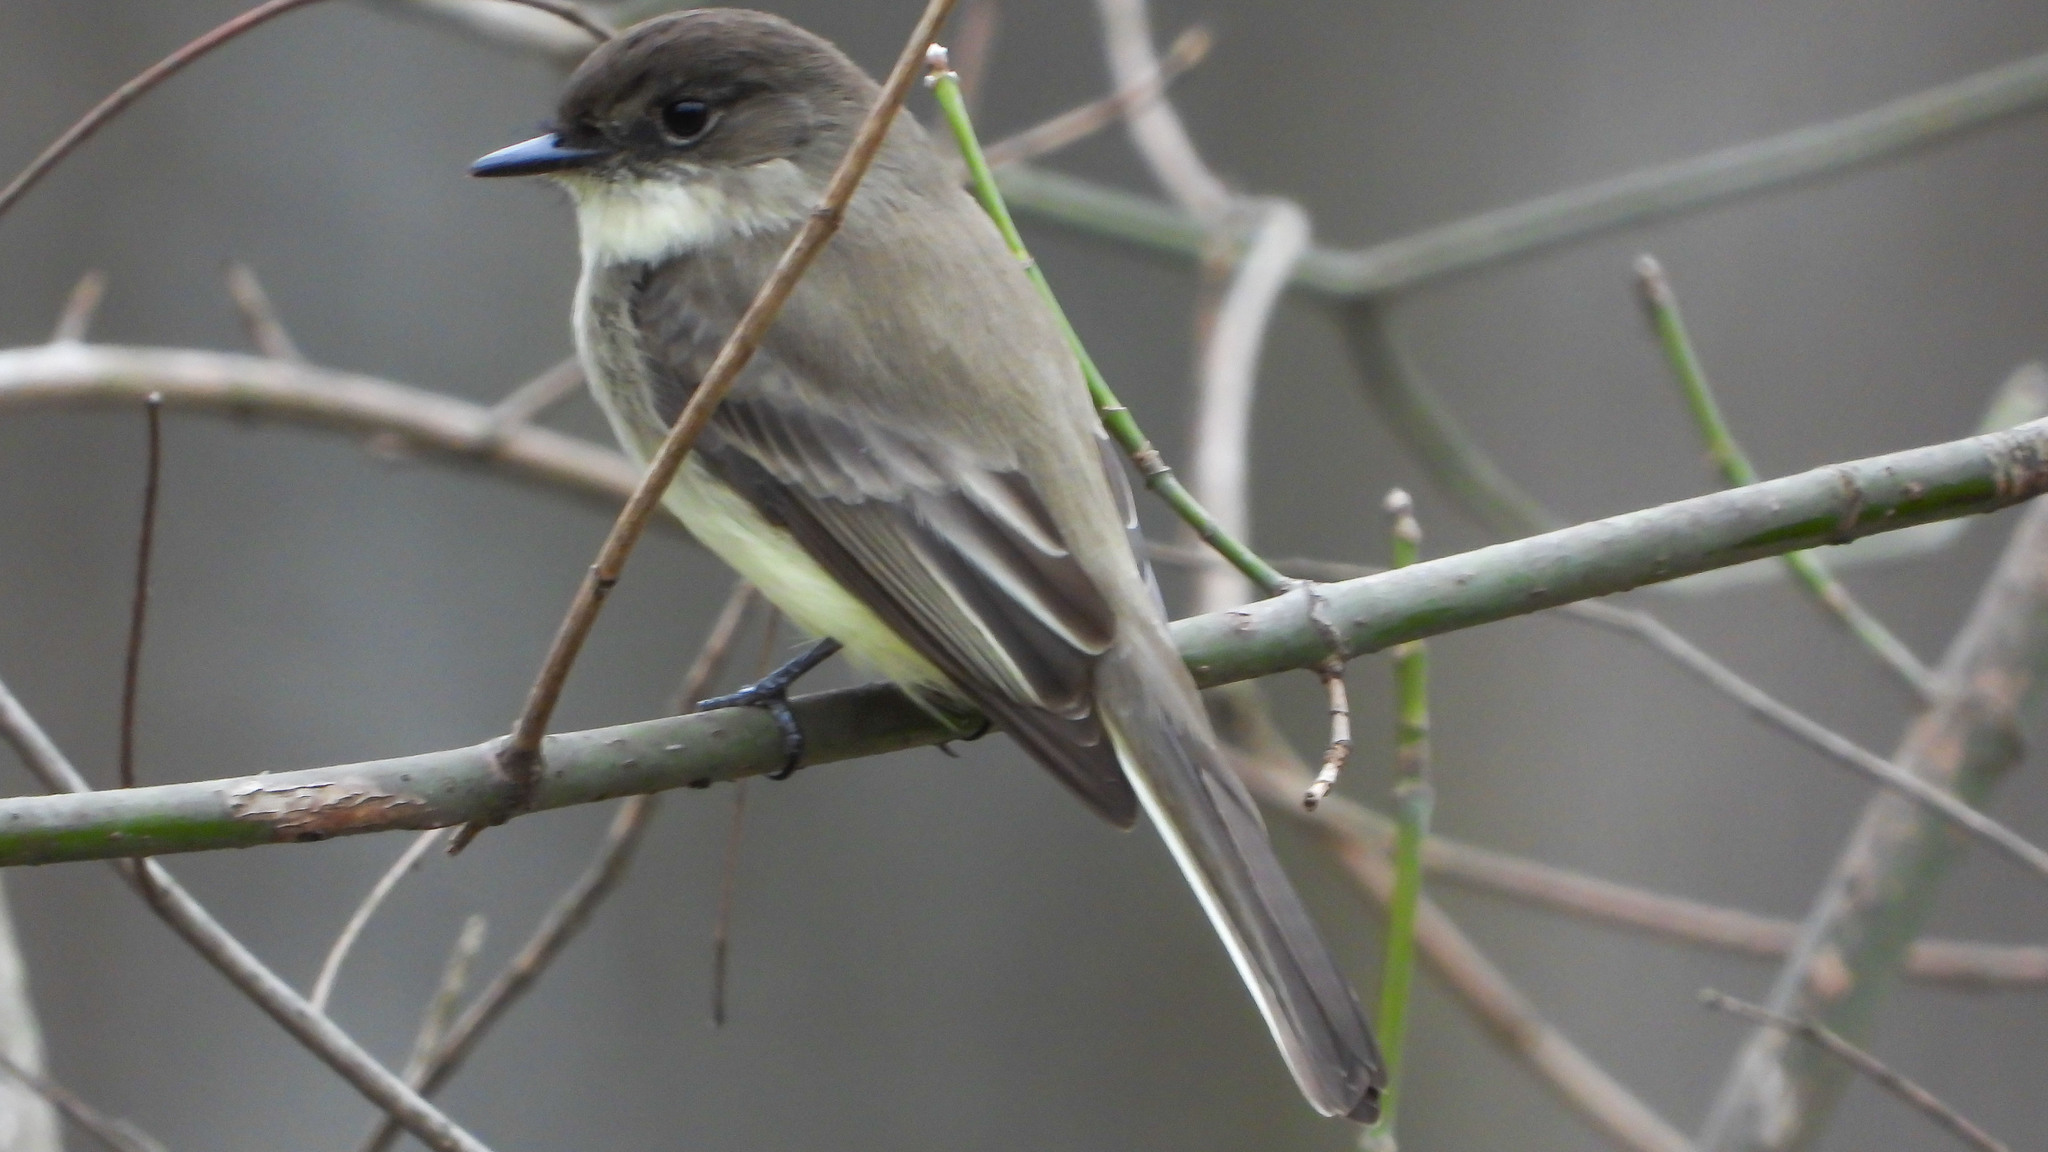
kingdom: Animalia
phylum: Chordata
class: Aves
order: Passeriformes
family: Tyrannidae
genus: Sayornis
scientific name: Sayornis phoebe
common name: Eastern phoebe
